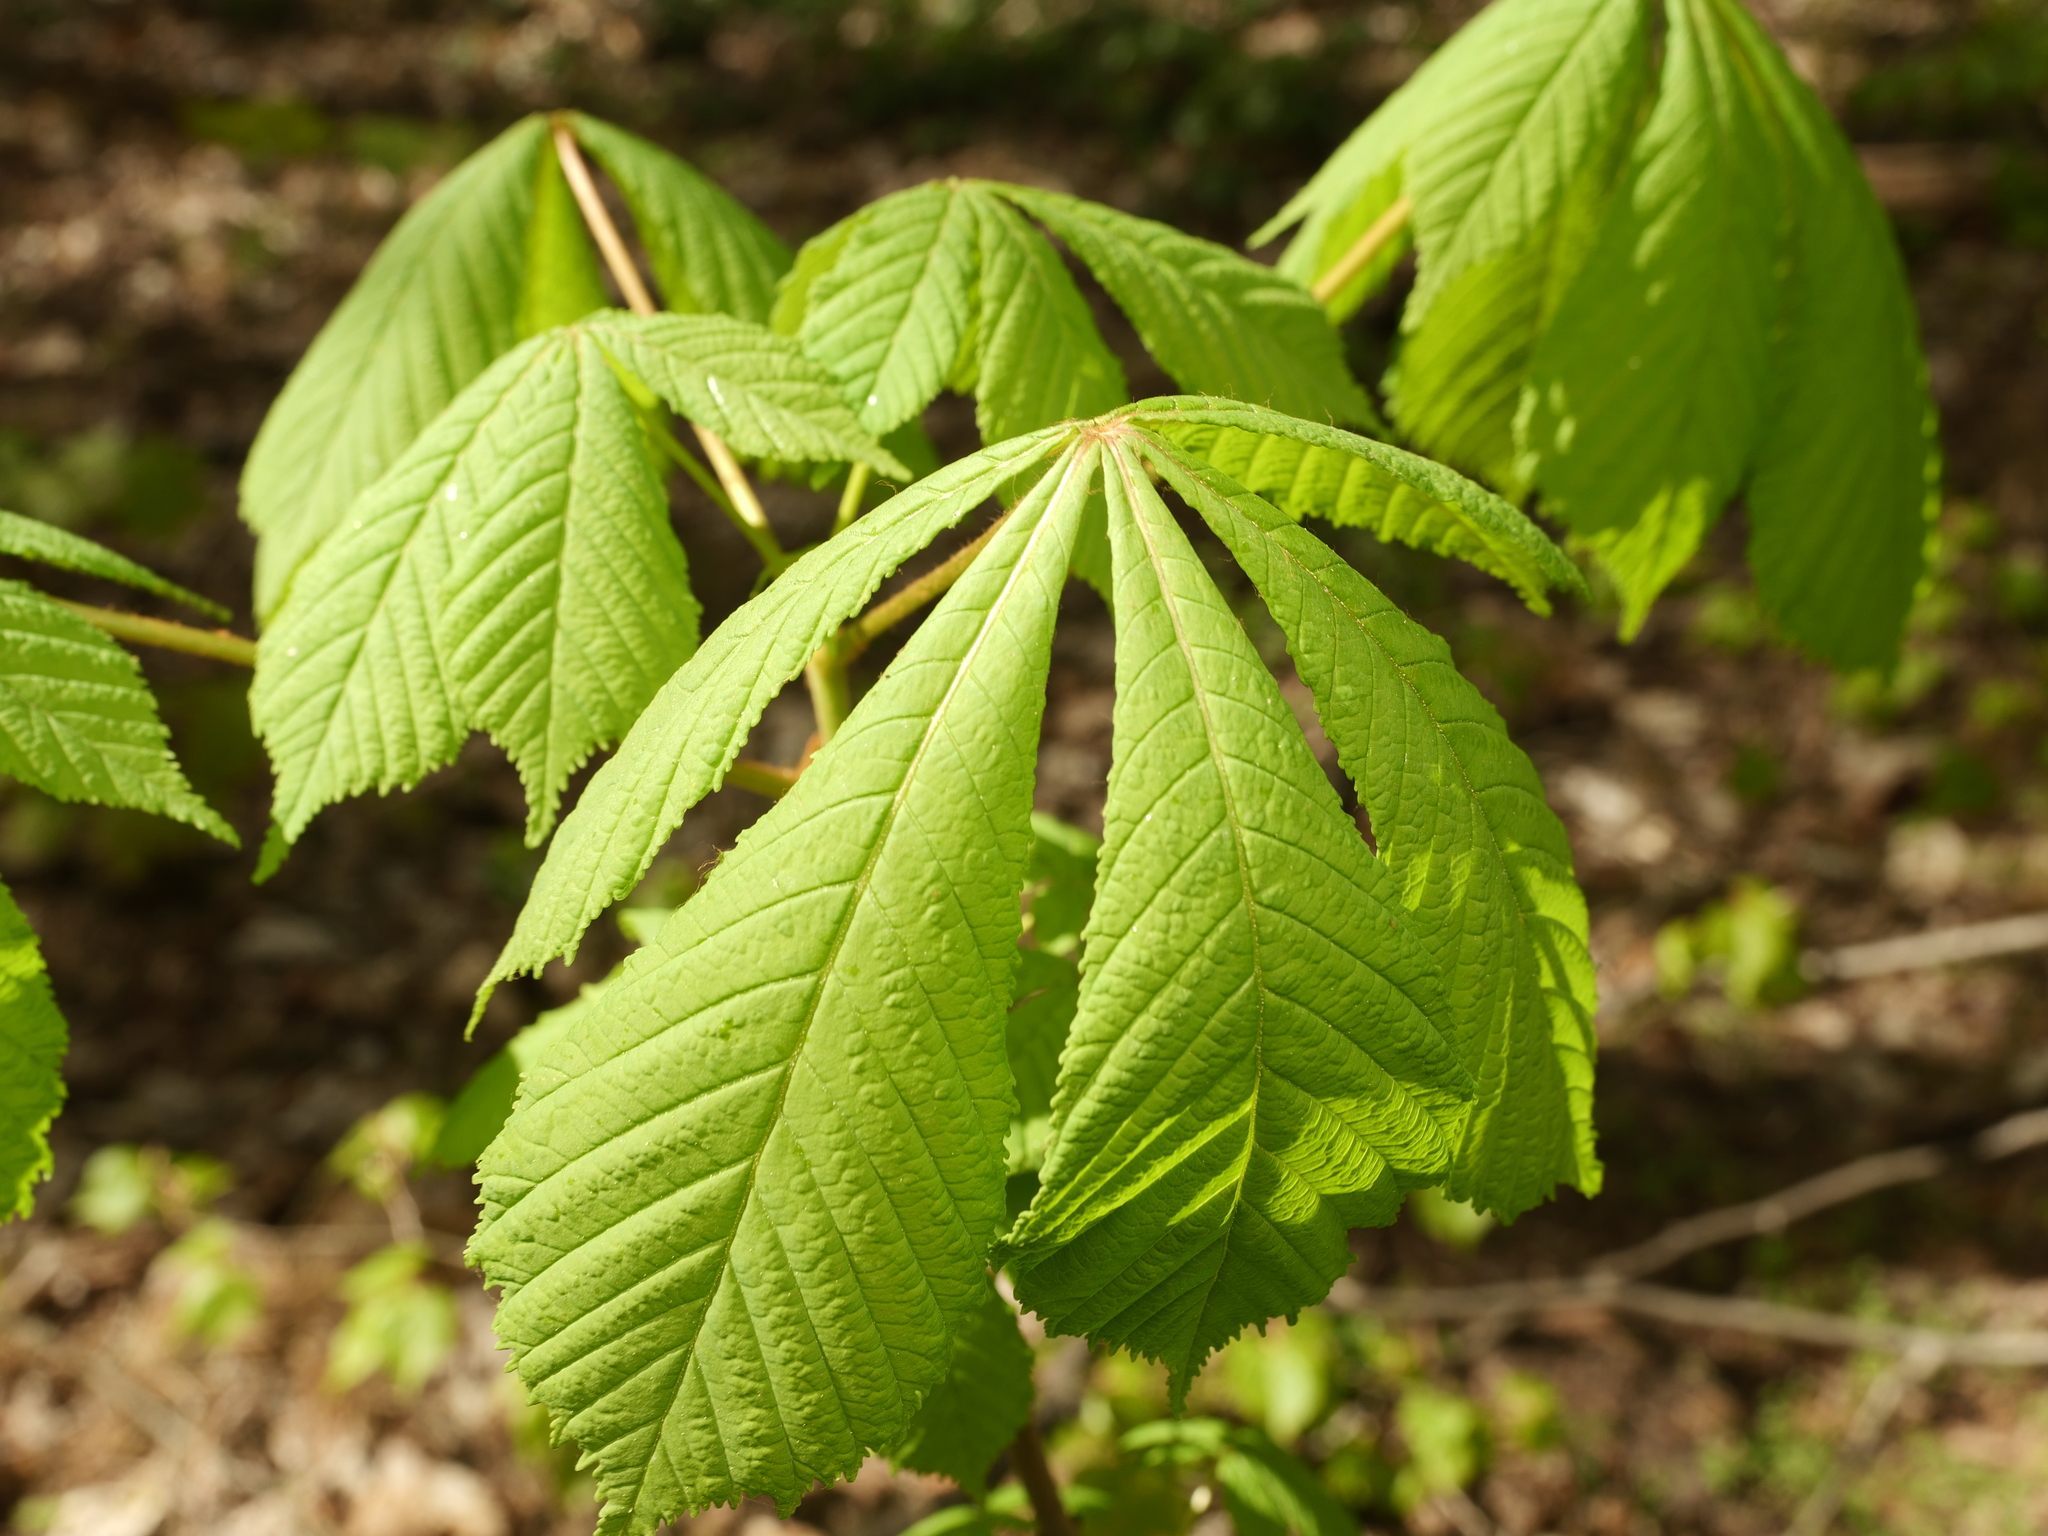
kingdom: Plantae
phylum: Tracheophyta
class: Magnoliopsida
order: Sapindales
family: Sapindaceae
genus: Aesculus
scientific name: Aesculus hippocastanum
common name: Horse-chestnut
